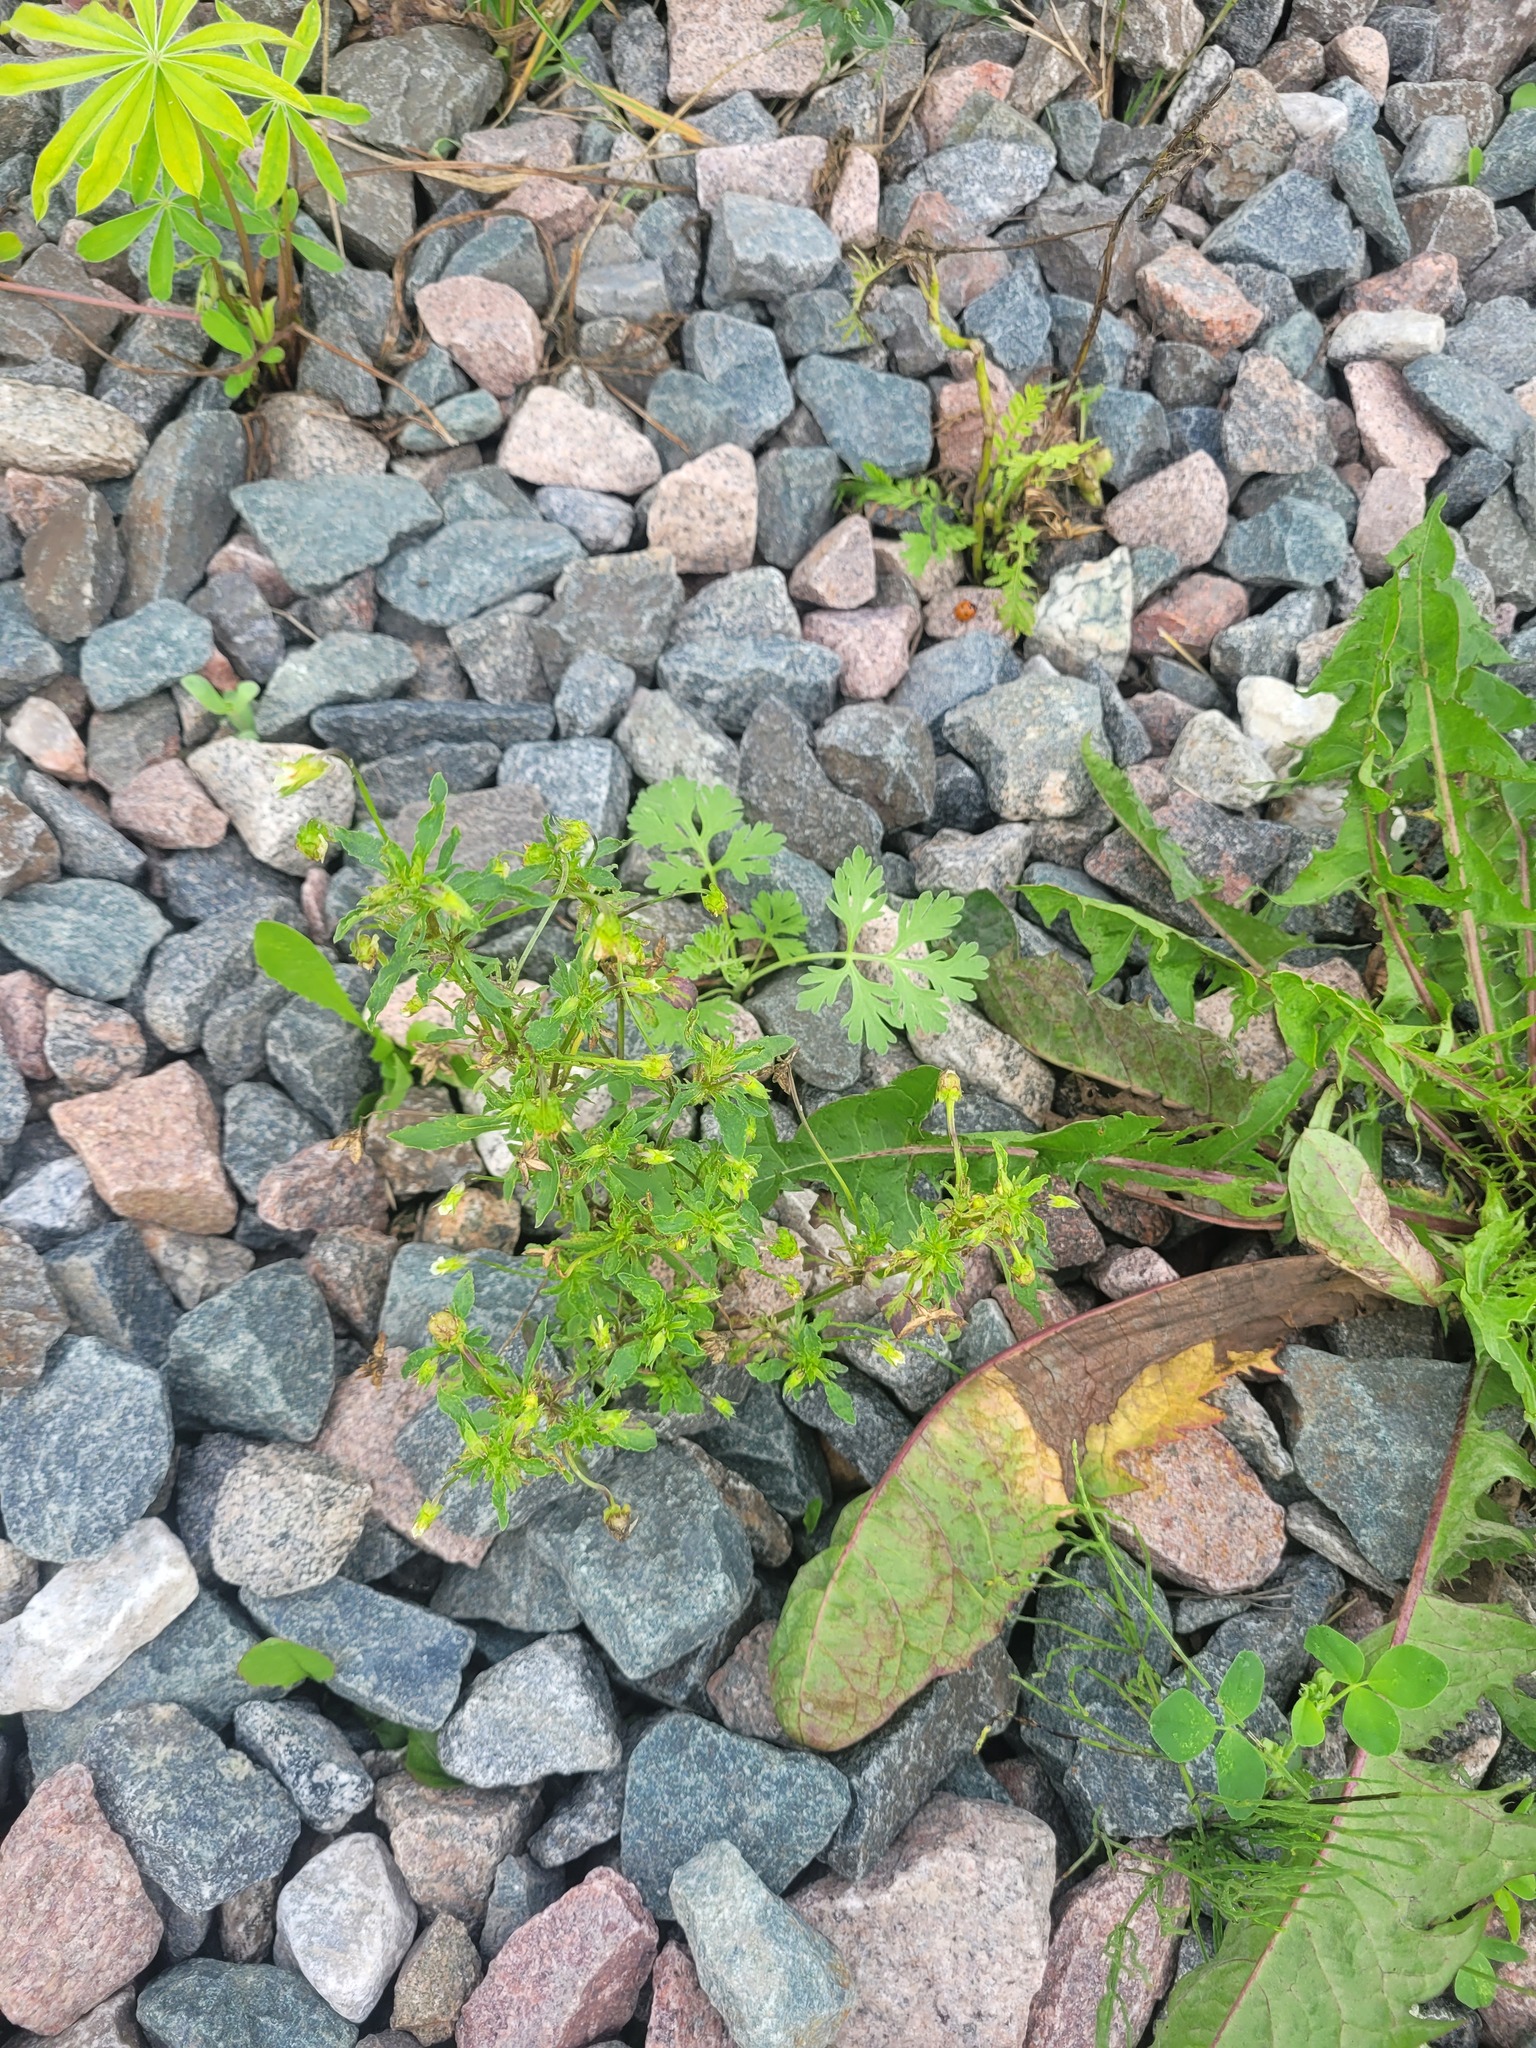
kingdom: Plantae
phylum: Tracheophyta
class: Magnoliopsida
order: Malpighiales
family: Violaceae
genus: Viola
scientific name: Viola arvensis
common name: Field pansy
